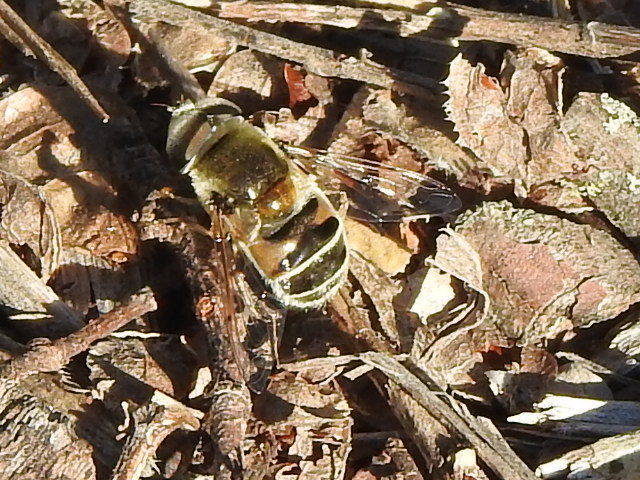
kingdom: Animalia
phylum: Arthropoda
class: Insecta
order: Diptera
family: Syrphidae
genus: Eristalis
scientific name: Eristalis stipator
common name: Yellow-shouldered drone fly
